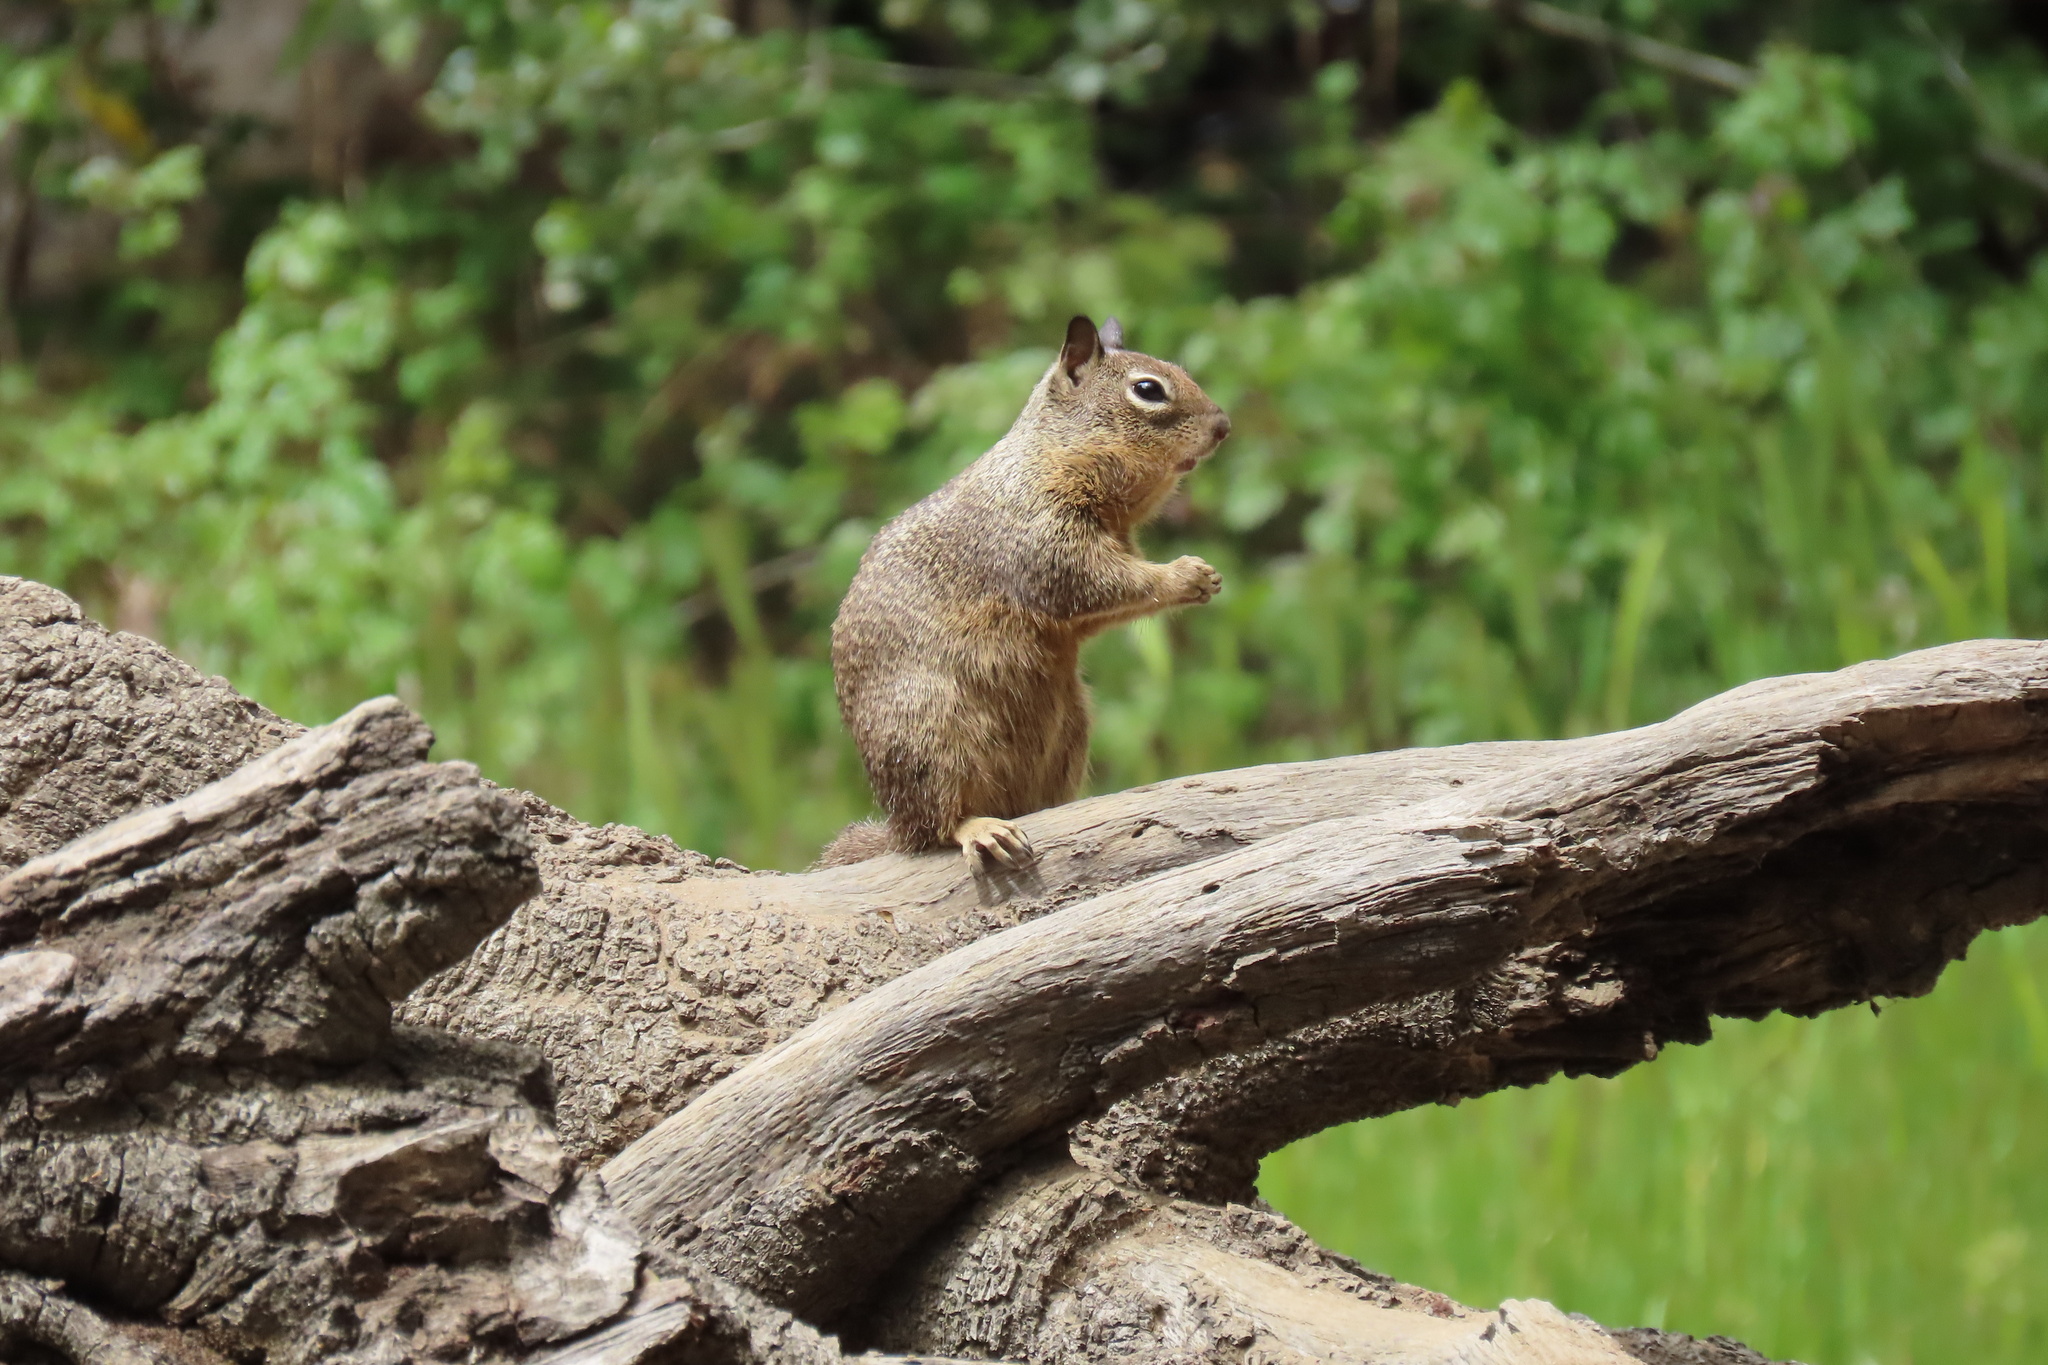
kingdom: Animalia
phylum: Chordata
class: Mammalia
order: Rodentia
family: Sciuridae
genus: Otospermophilus
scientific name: Otospermophilus beecheyi
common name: California ground squirrel
